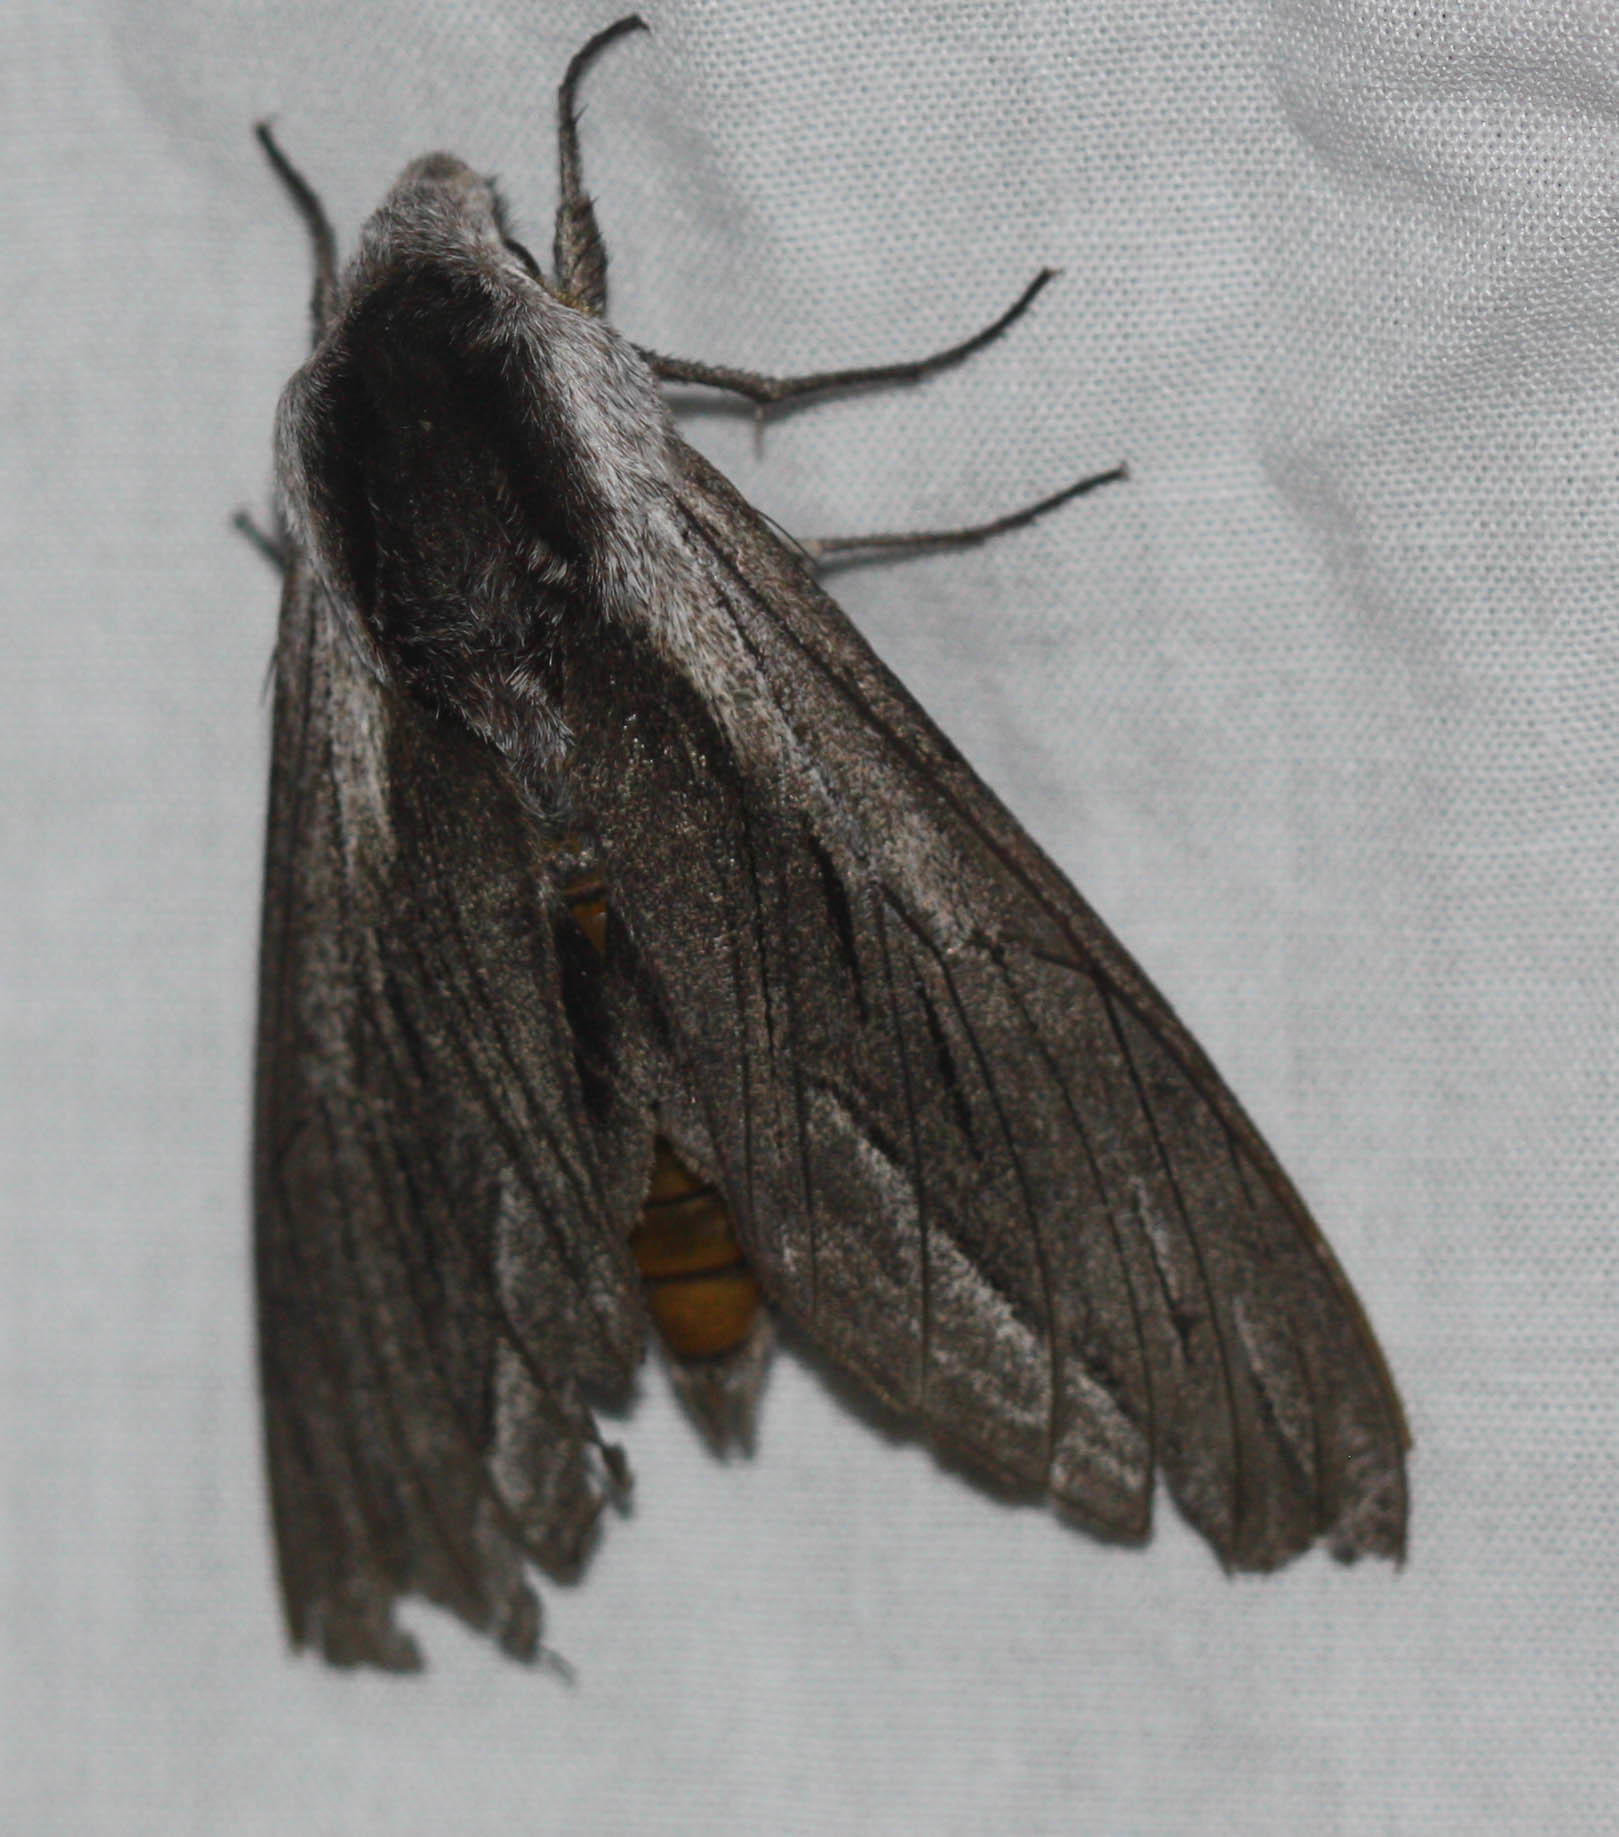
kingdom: Animalia
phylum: Arthropoda
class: Insecta
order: Lepidoptera
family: Sphingidae
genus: Sphinx
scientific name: Sphinx vashti
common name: Snowberry sphinx
